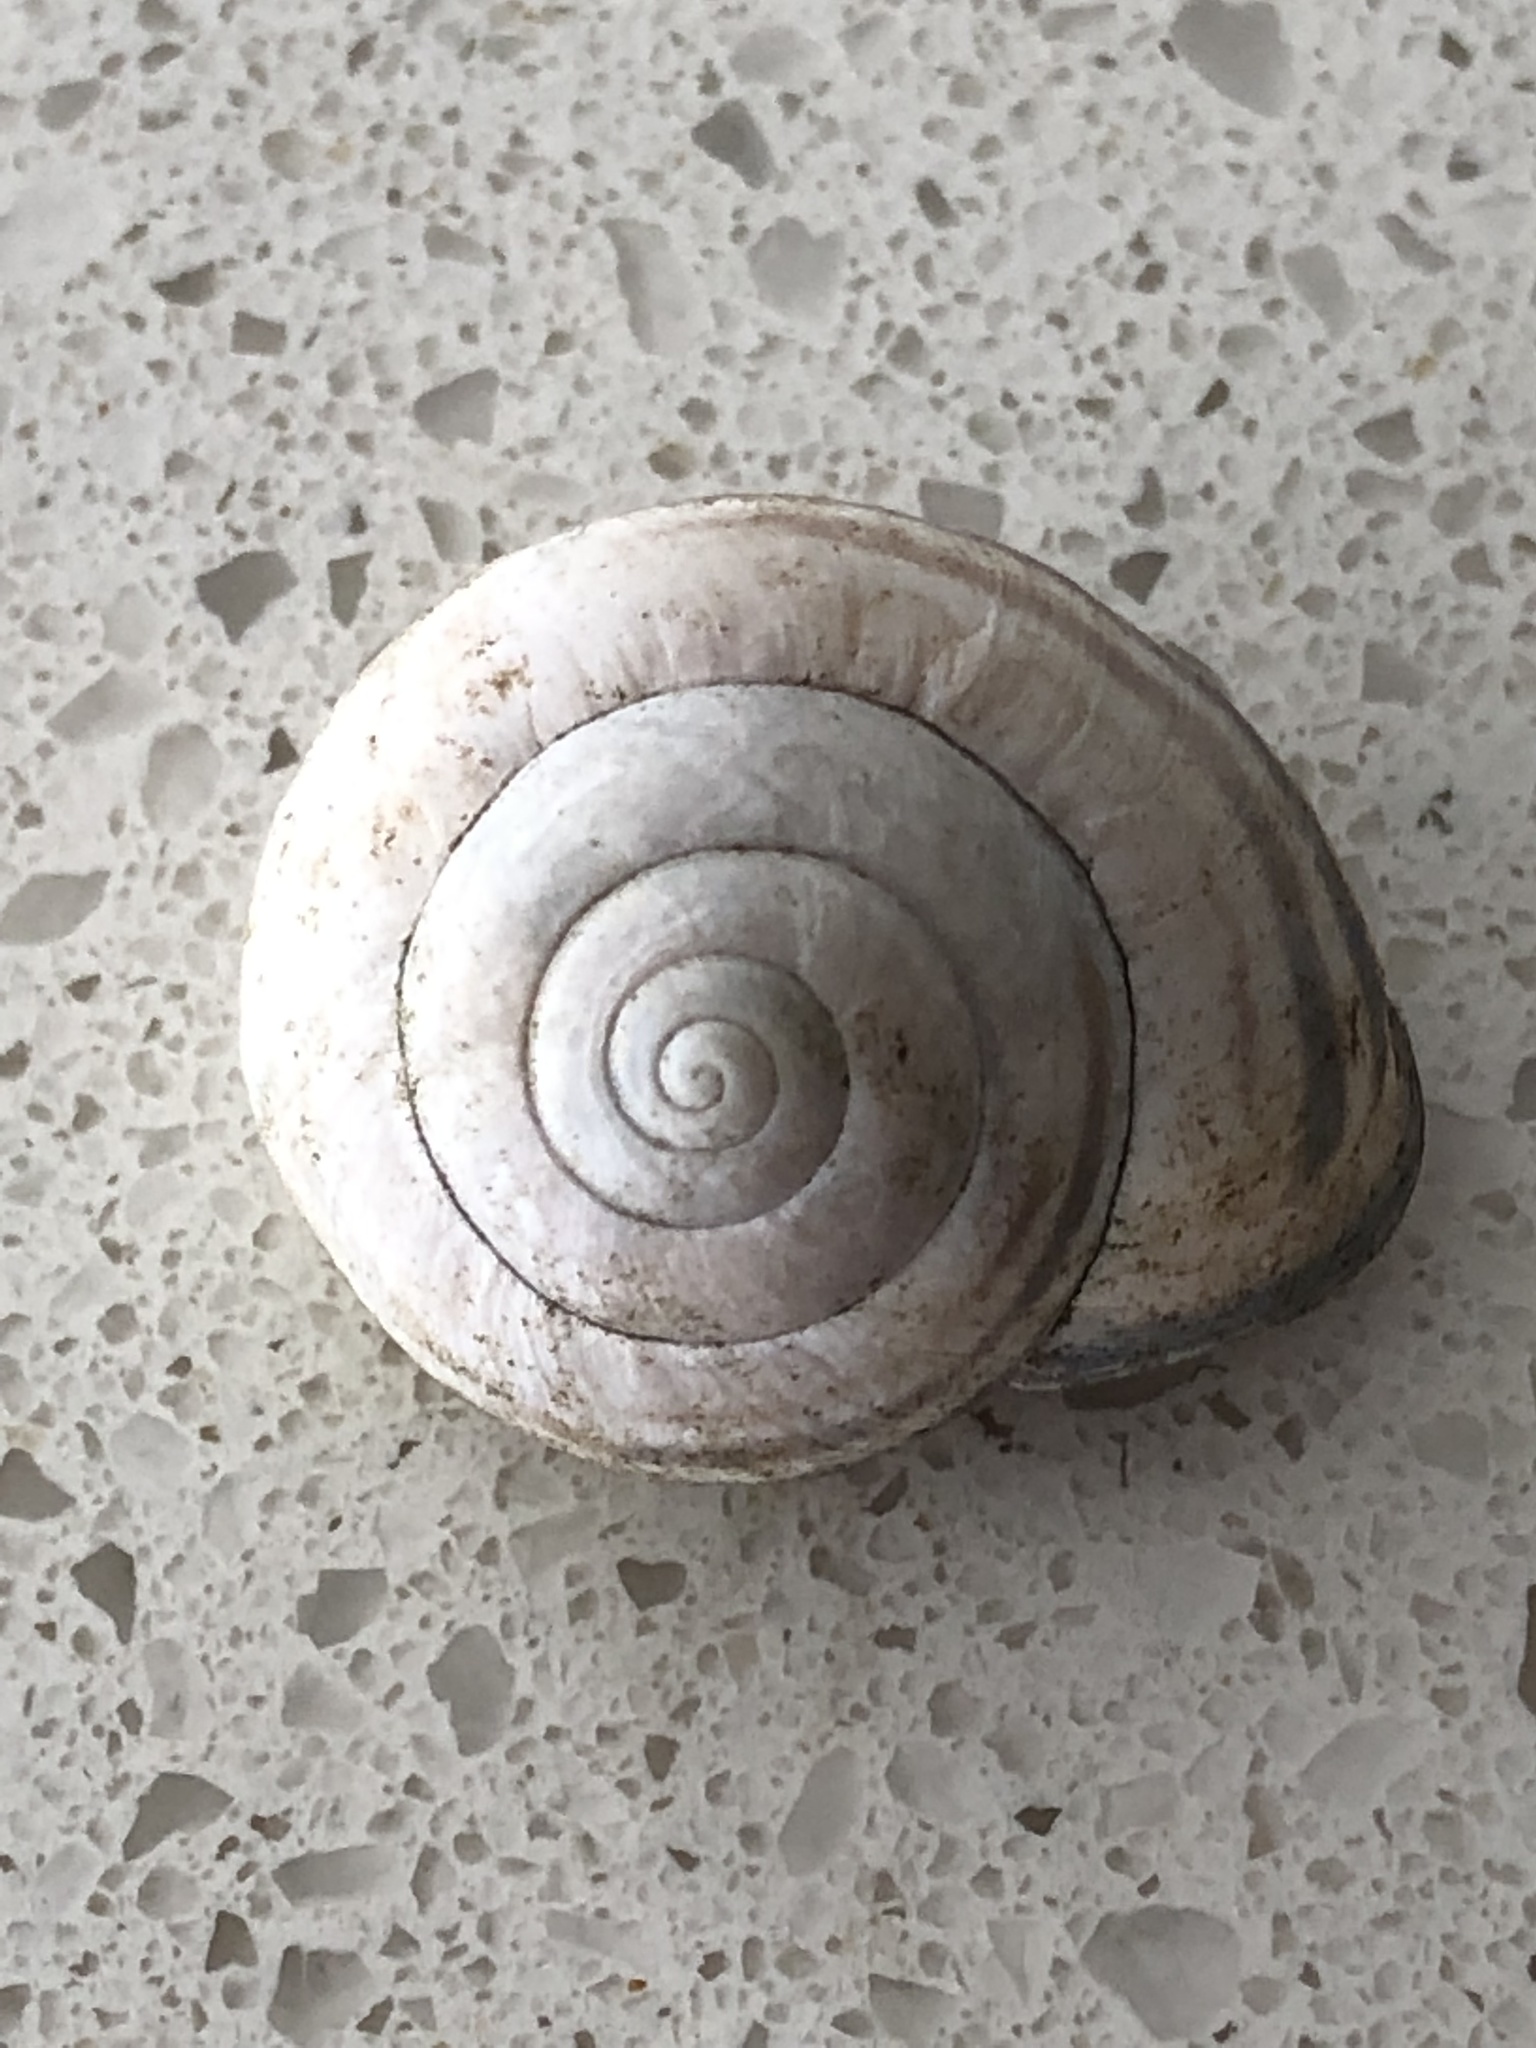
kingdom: Animalia
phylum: Mollusca
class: Gastropoda
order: Stylommatophora
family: Helicidae
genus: Cepaea
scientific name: Cepaea nemoralis
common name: Grovesnail
